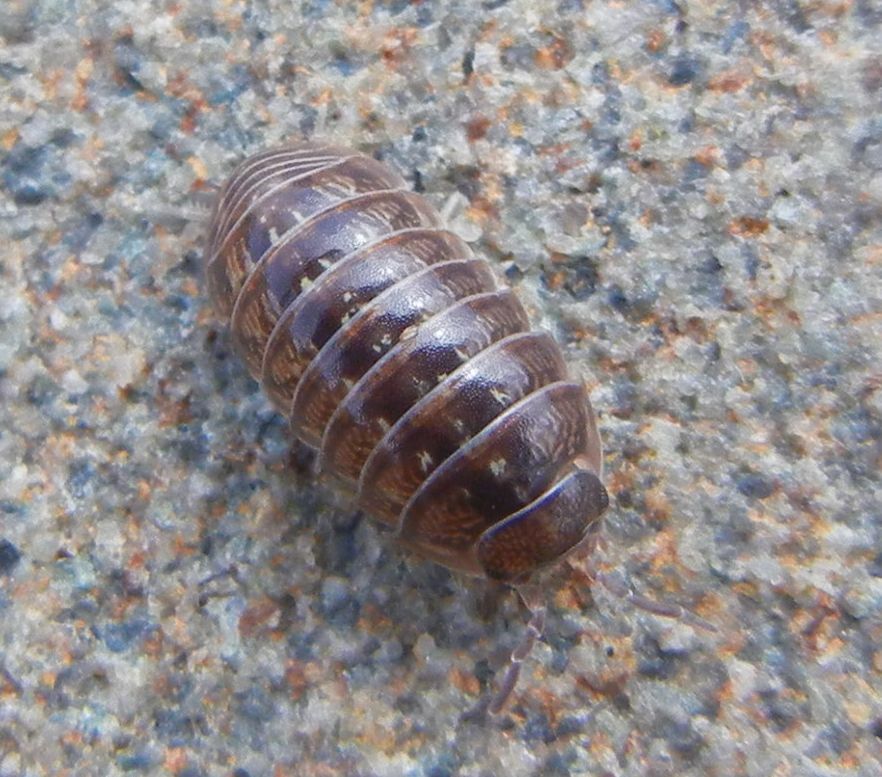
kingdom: Animalia
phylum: Arthropoda
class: Malacostraca
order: Isopoda
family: Armadillidiidae
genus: Armadillidium
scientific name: Armadillidium vulgare
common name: Common pill woodlouse
